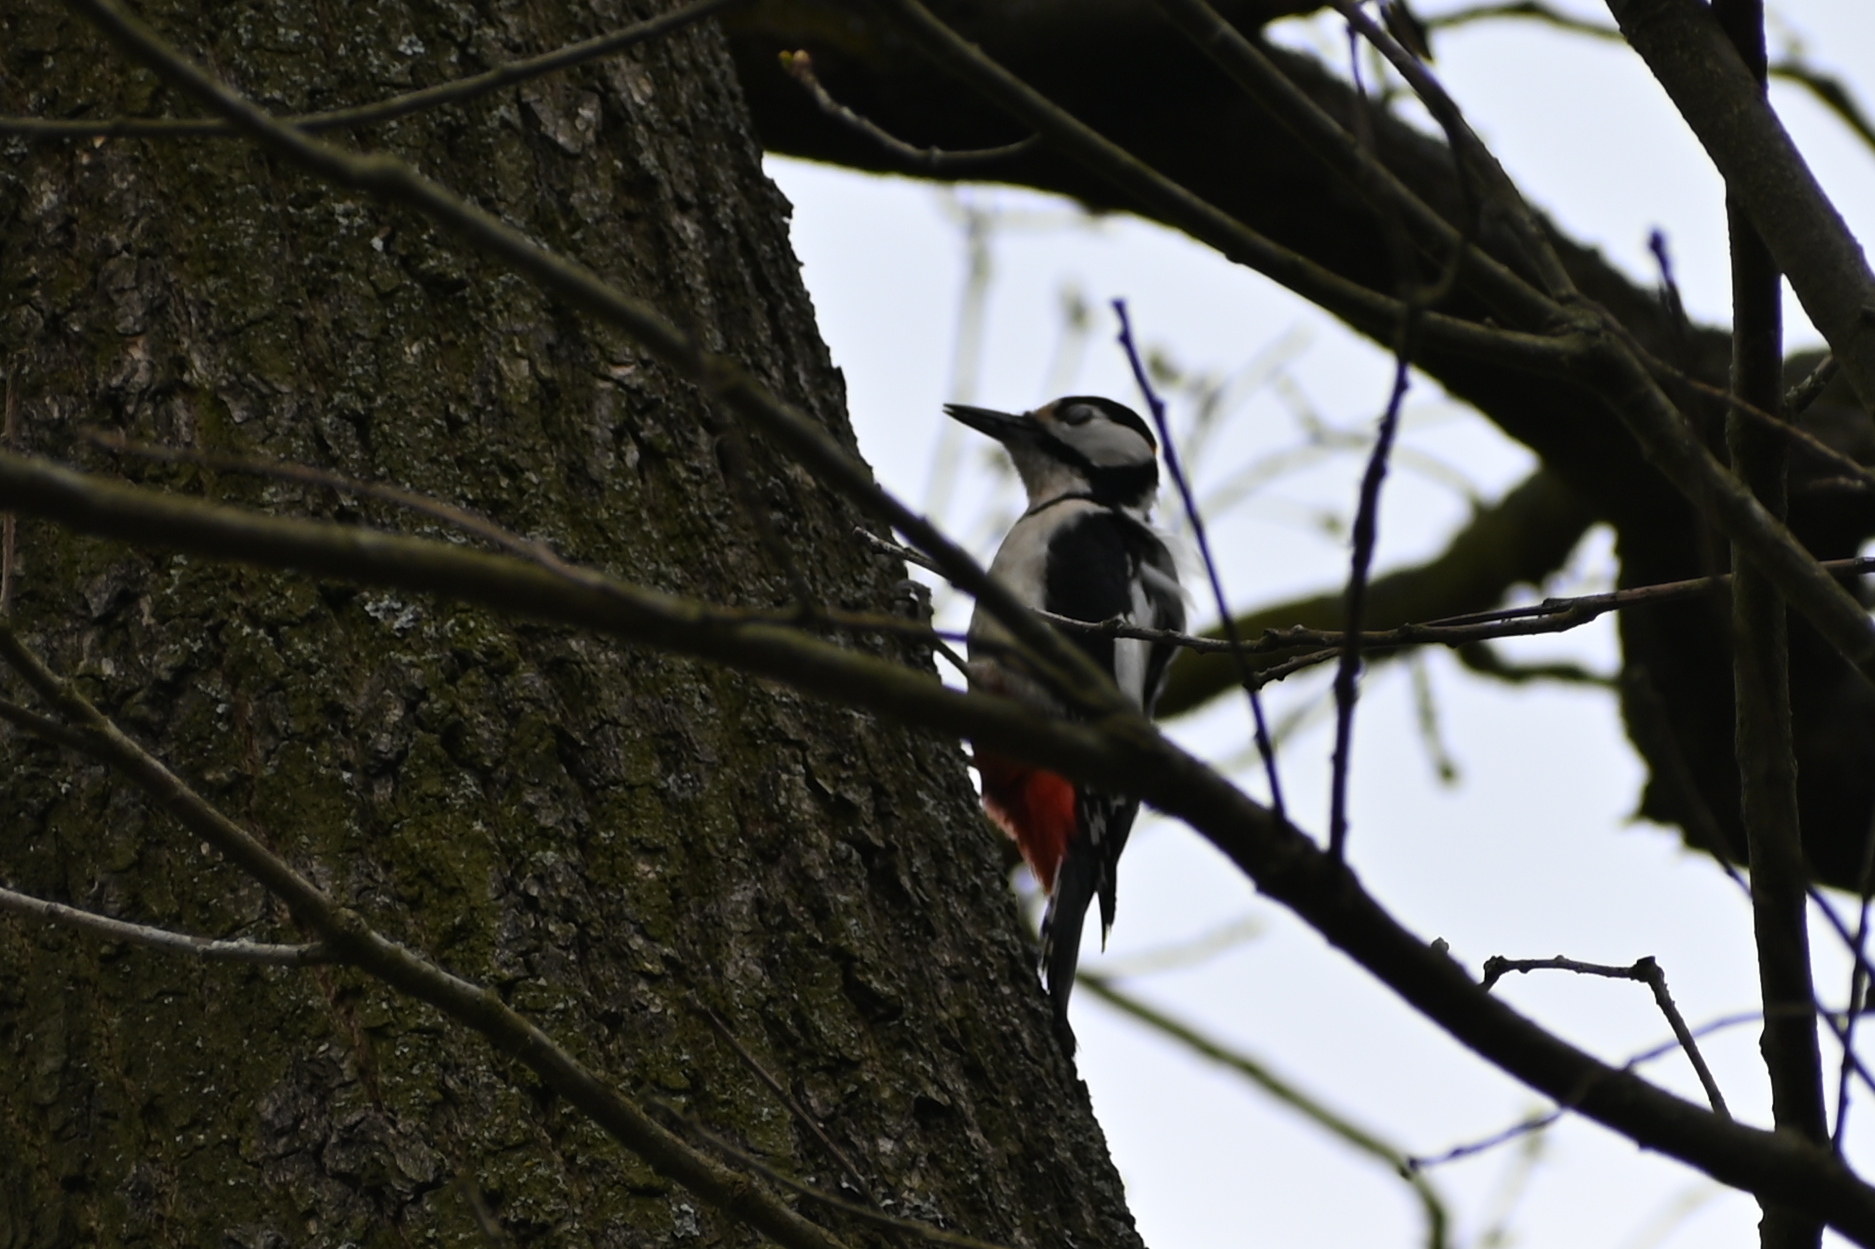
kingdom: Animalia
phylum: Chordata
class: Aves
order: Piciformes
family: Picidae
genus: Dendrocopos
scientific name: Dendrocopos major
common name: Great spotted woodpecker
